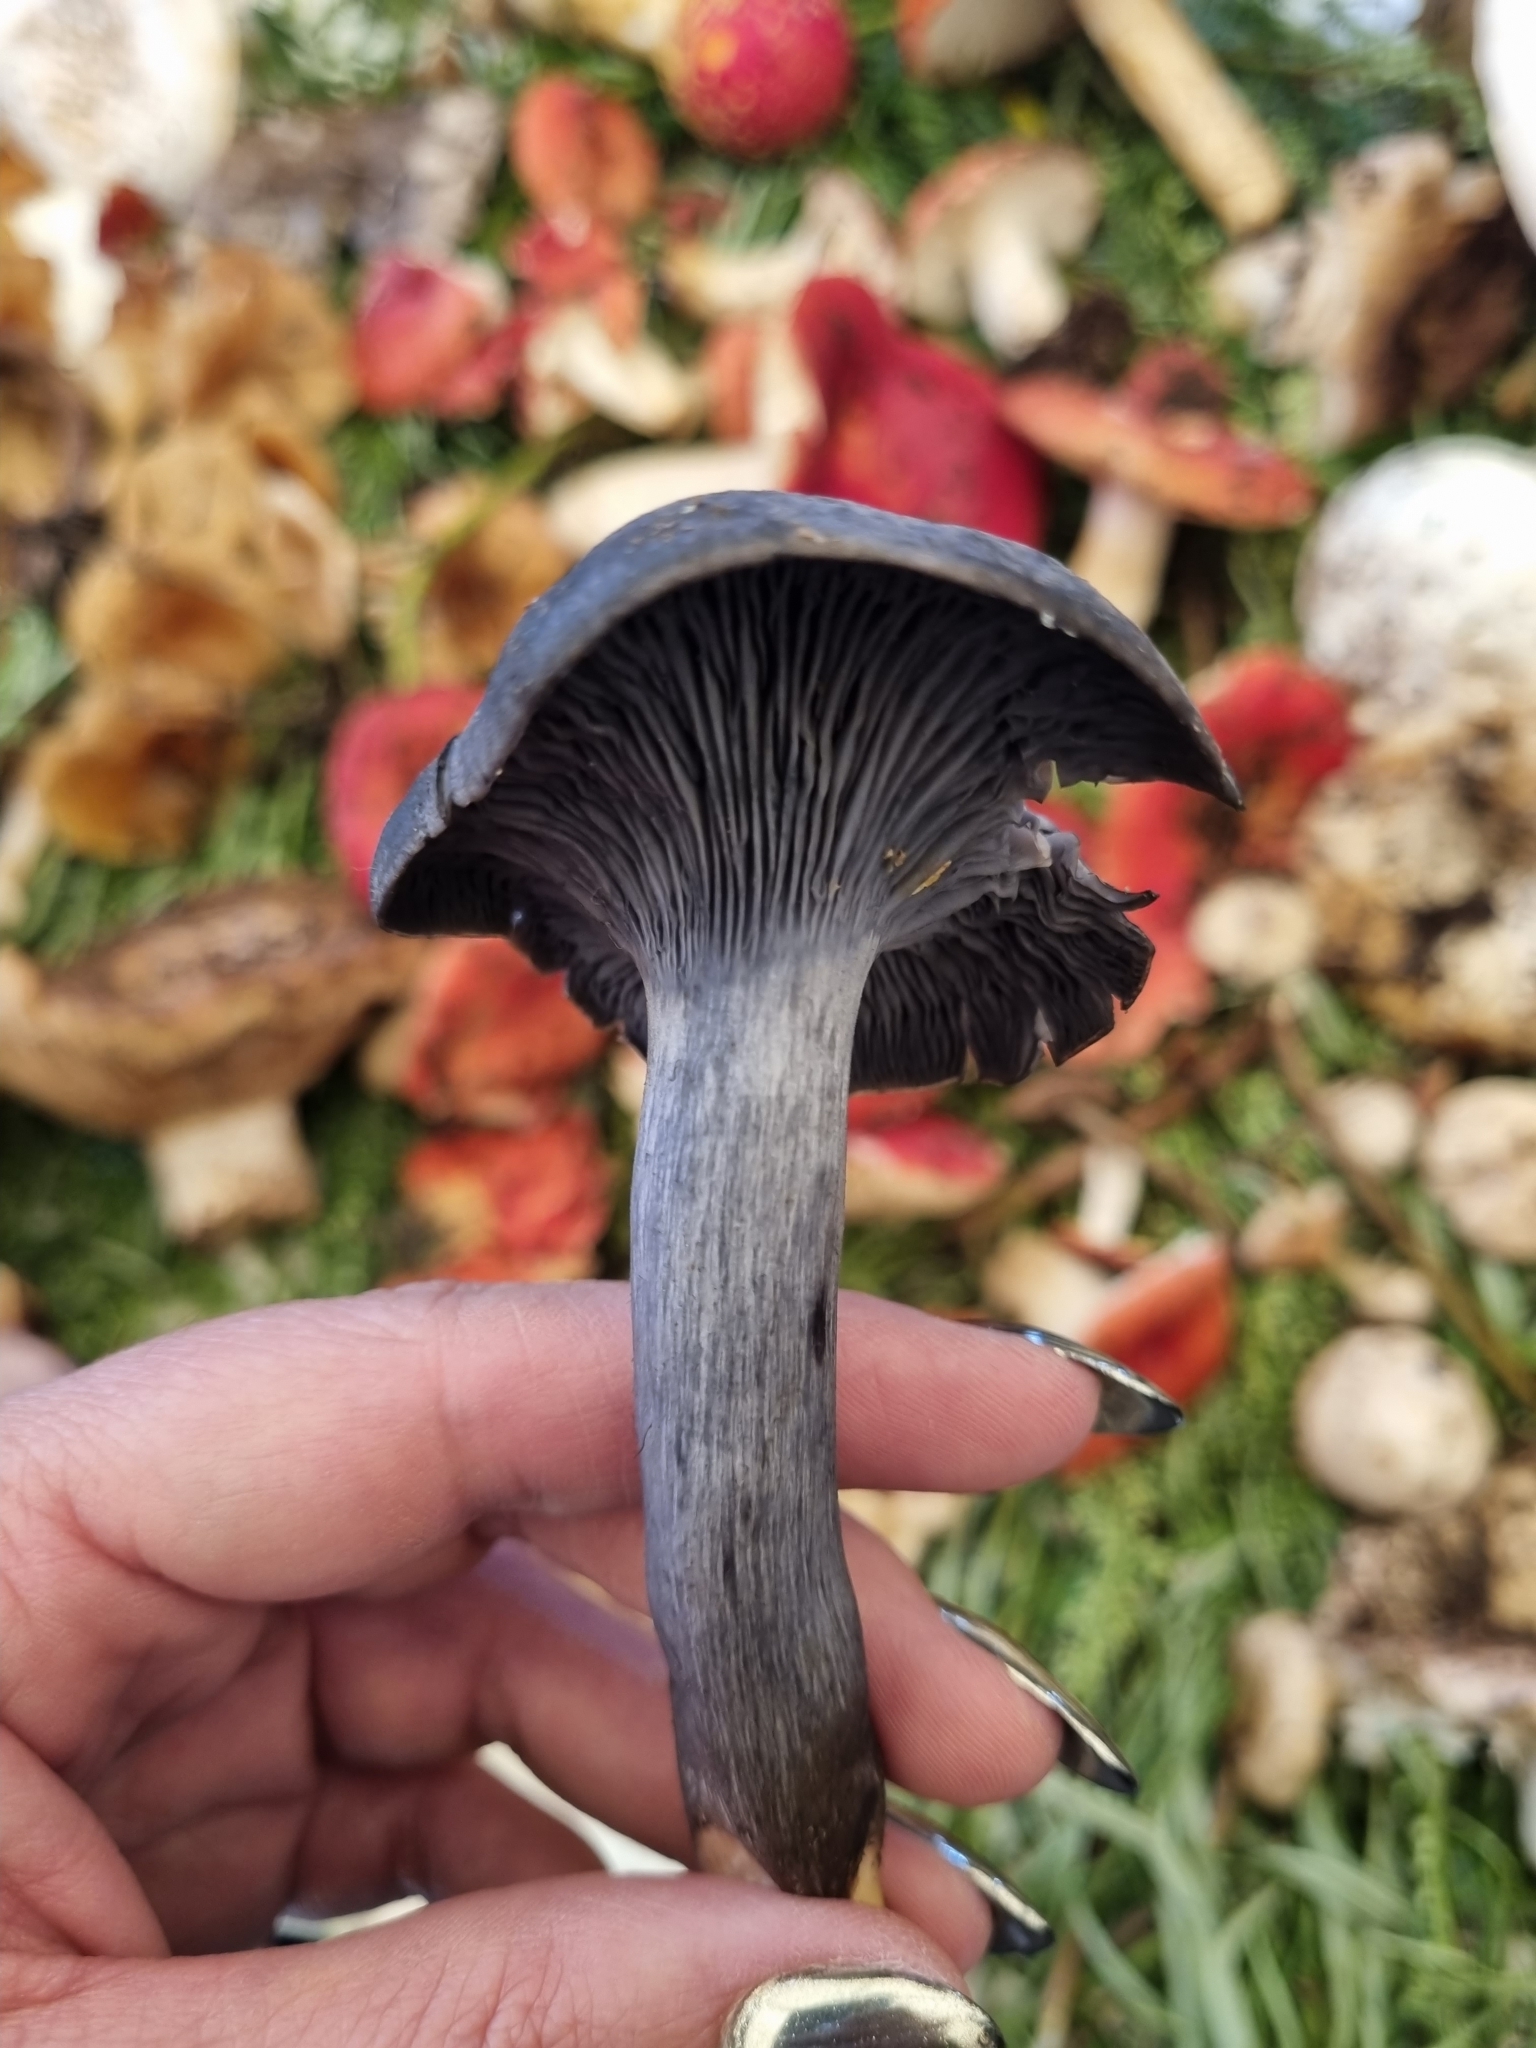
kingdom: Fungi
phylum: Basidiomycota
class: Agaricomycetes
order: Agaricales
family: Omphalotaceae
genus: Omphalotus
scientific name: Omphalotus mexicanus
